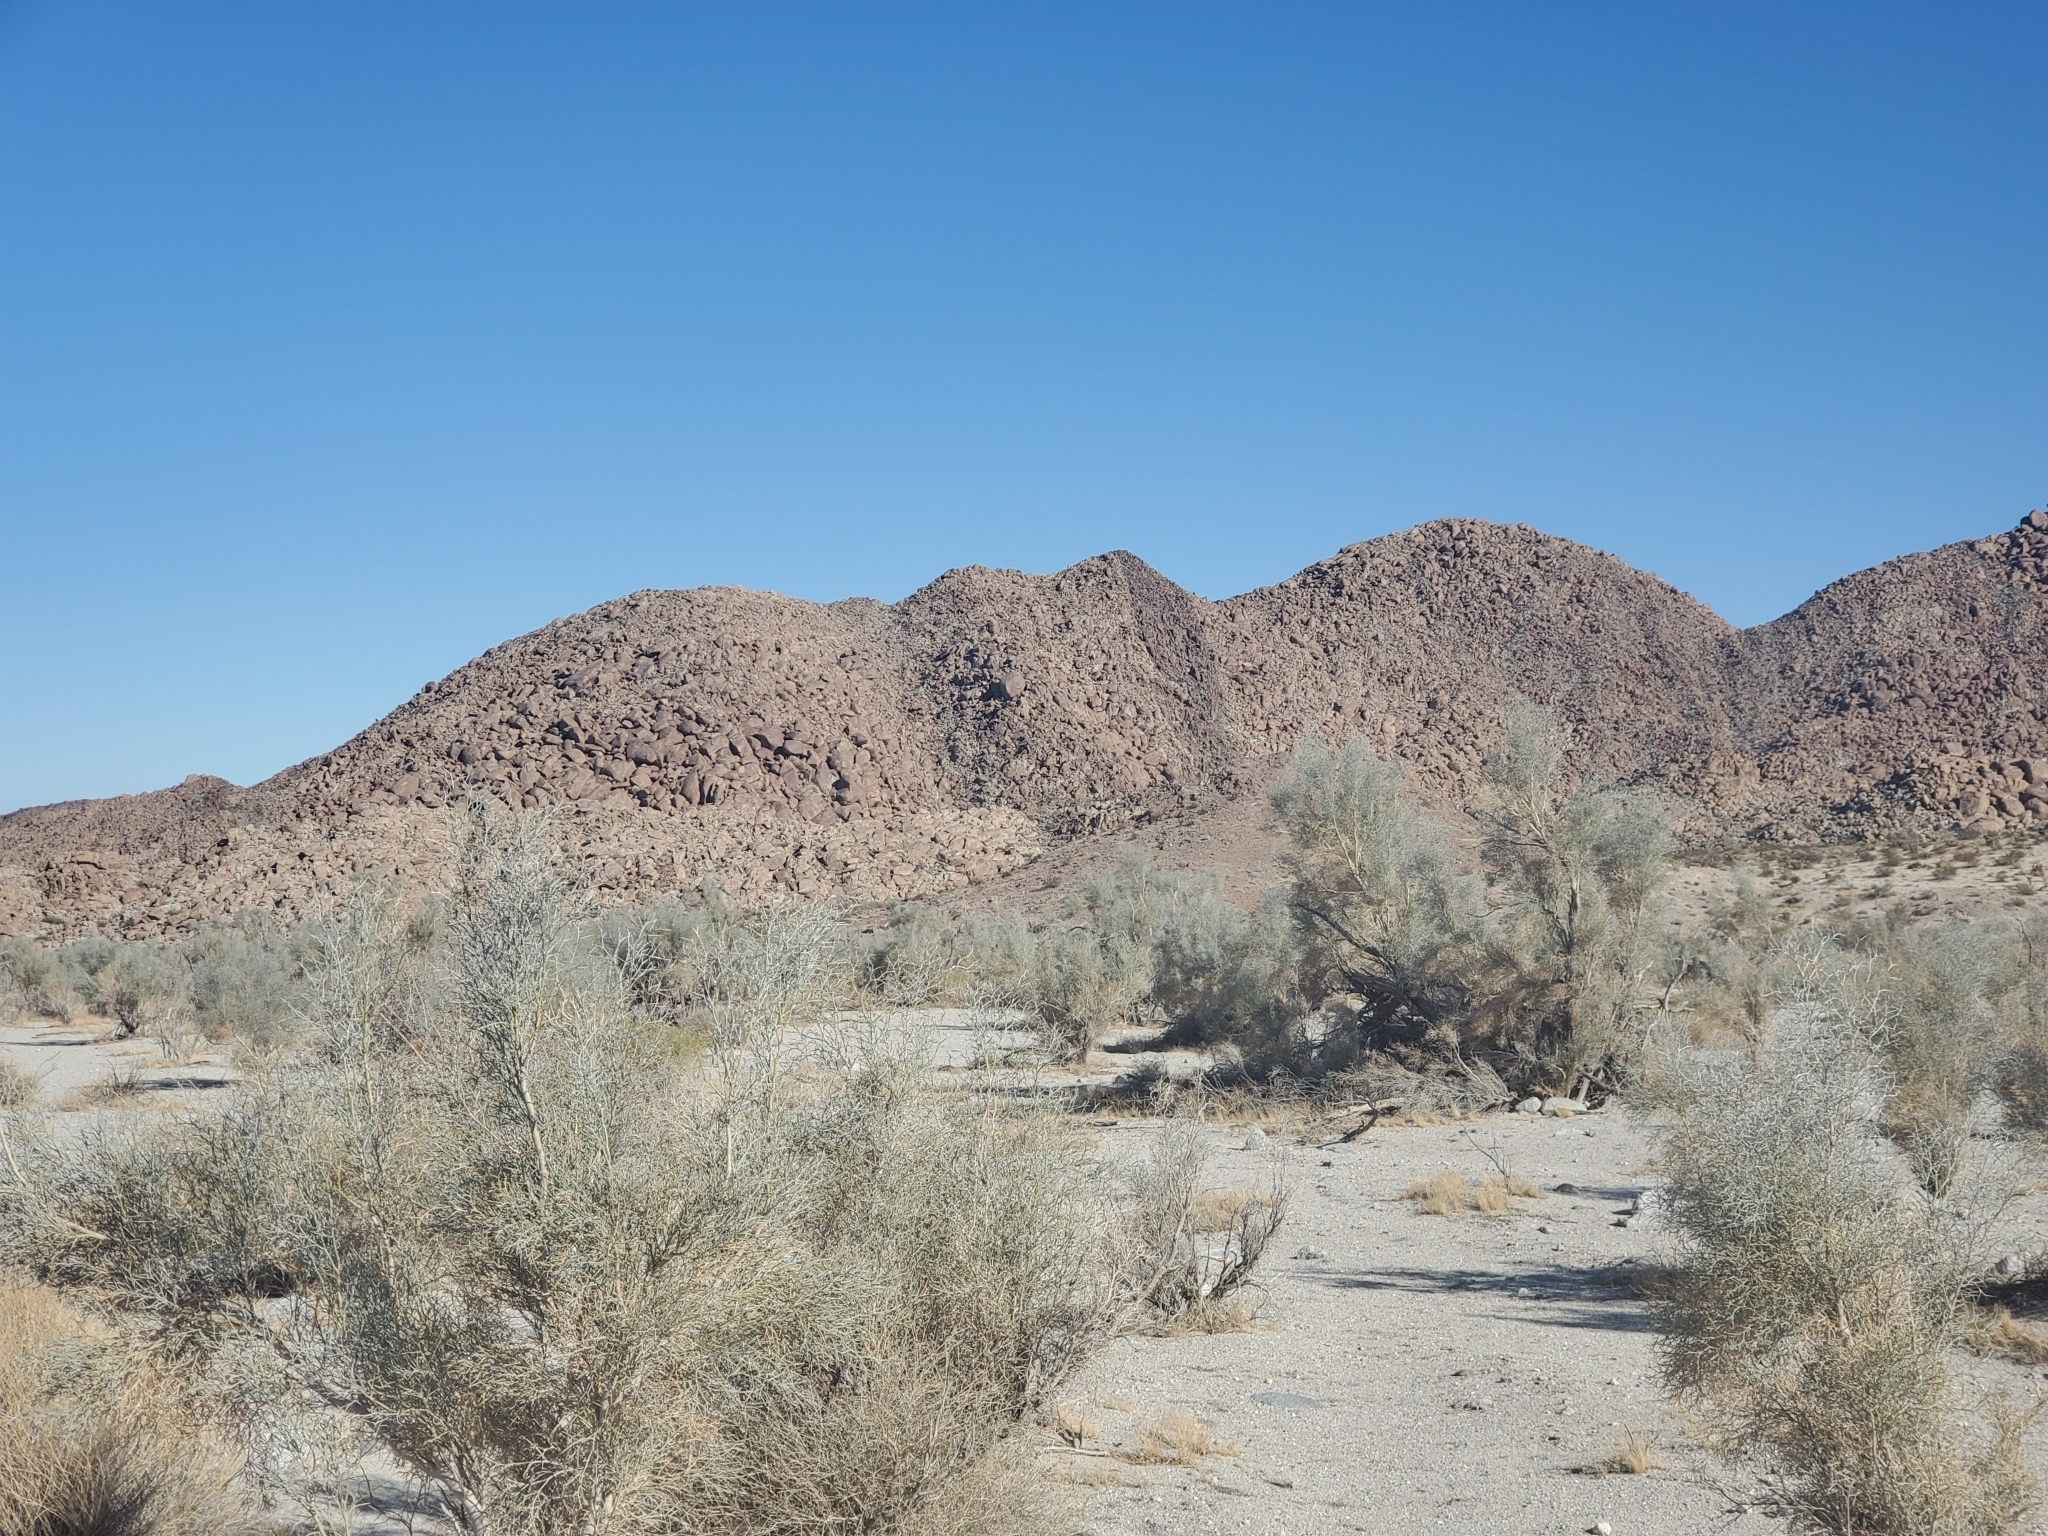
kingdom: Plantae
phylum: Tracheophyta
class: Magnoliopsida
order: Fabales
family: Fabaceae
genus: Psorothamnus
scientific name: Psorothamnus spinosus
